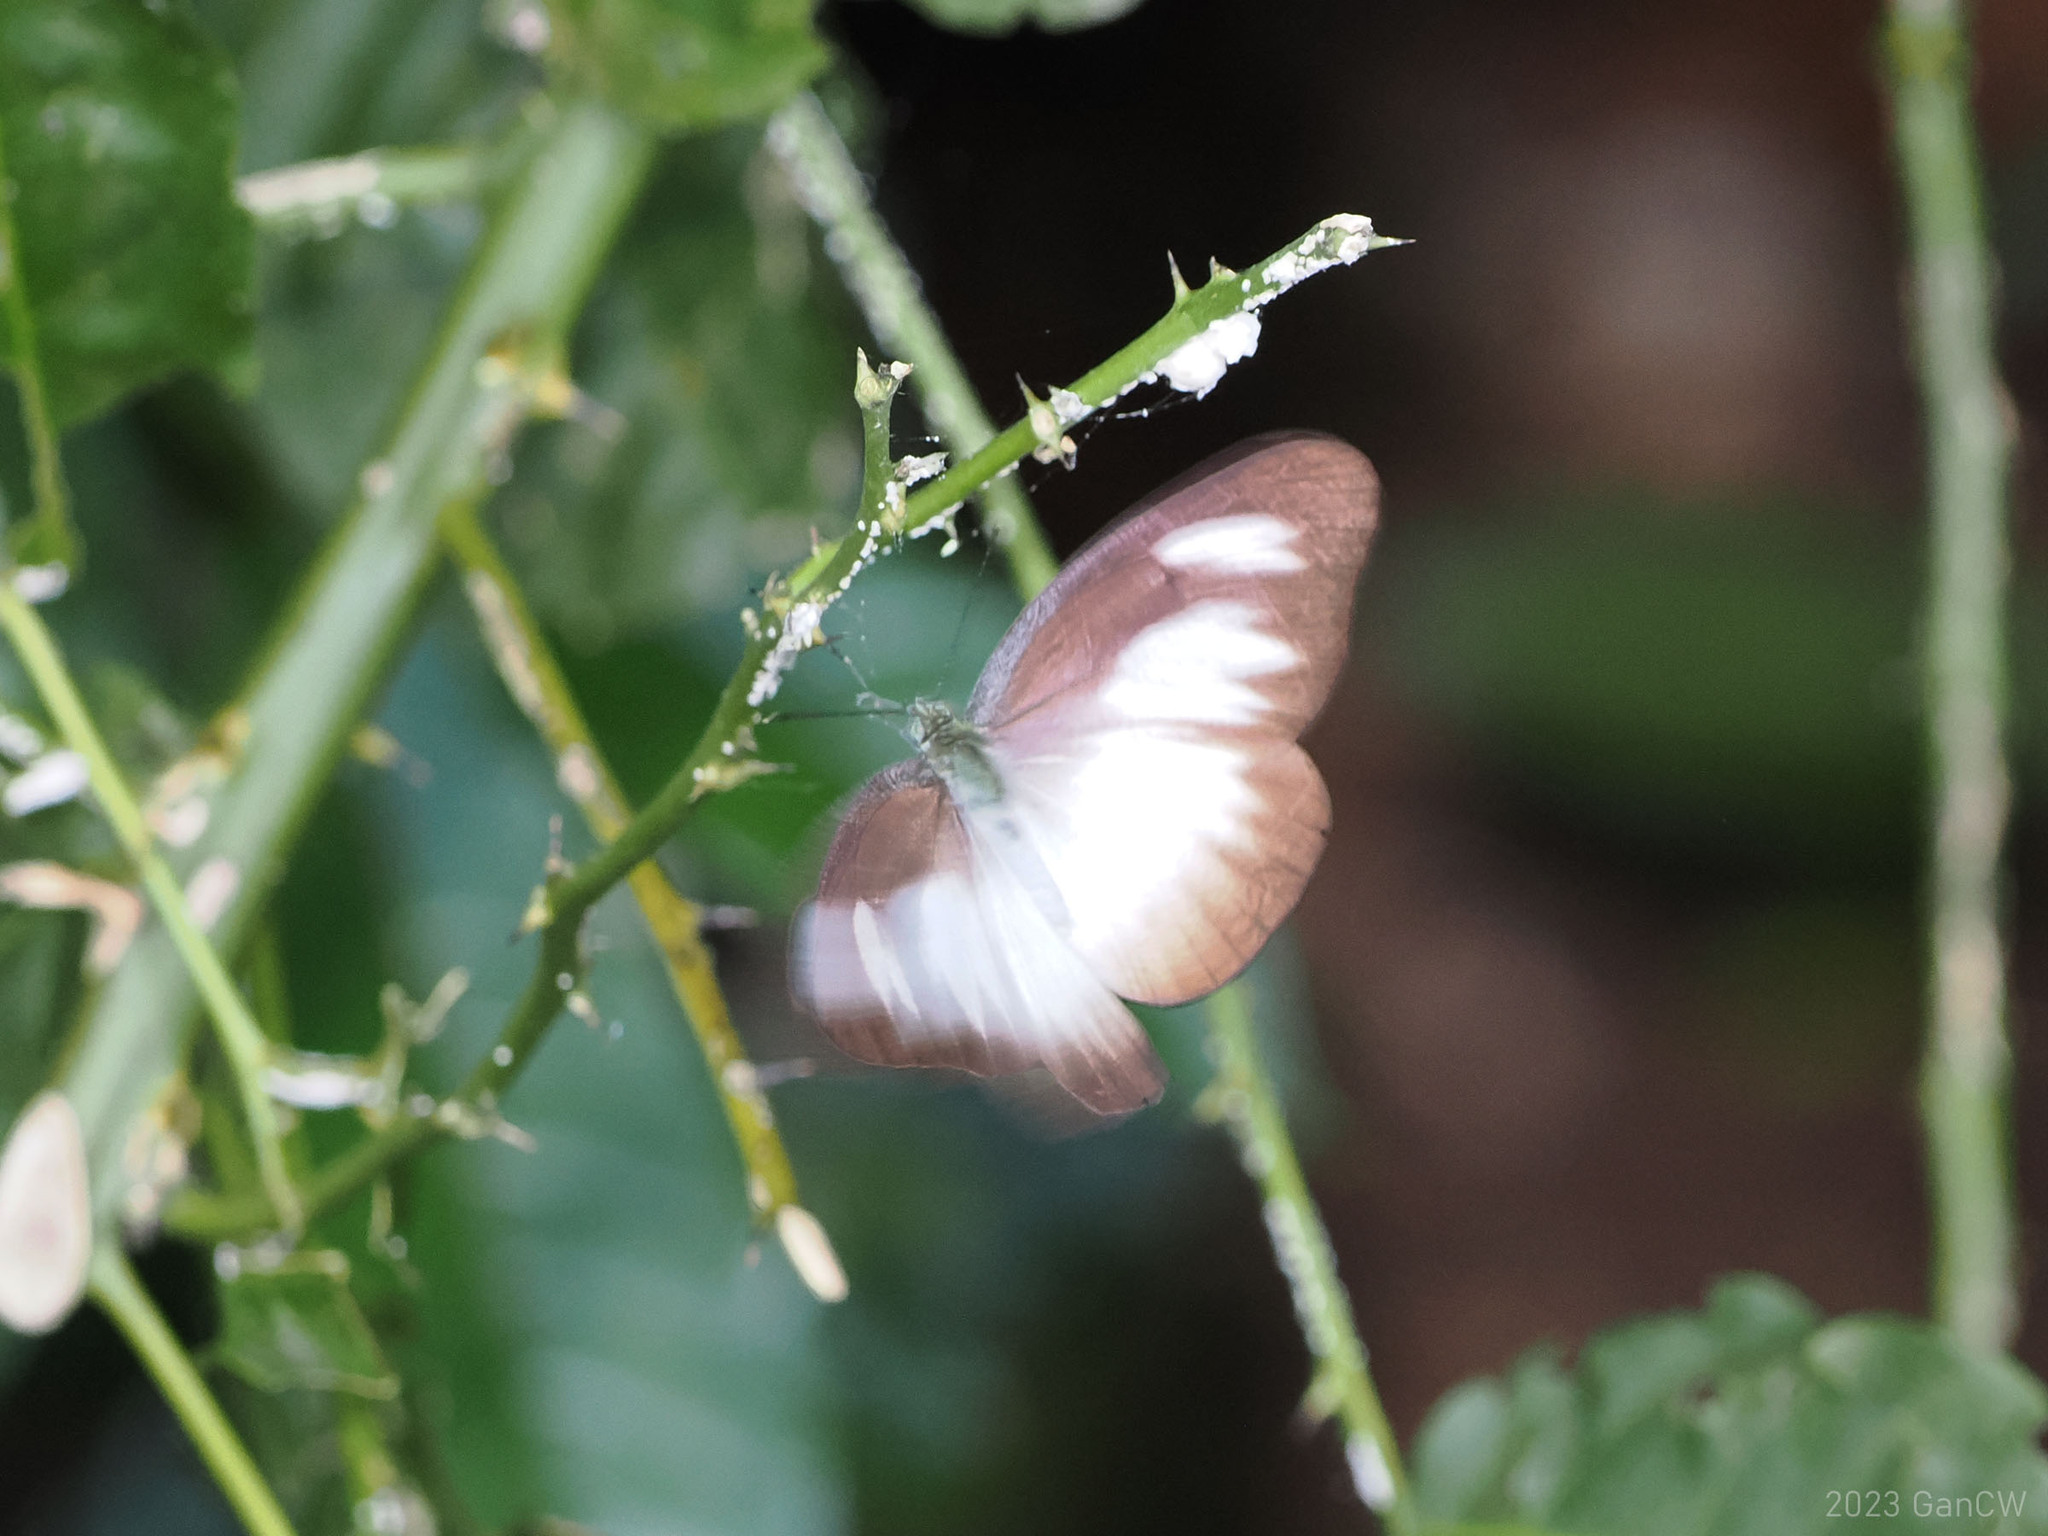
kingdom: Animalia
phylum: Arthropoda
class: Insecta
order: Lepidoptera
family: Pieridae
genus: Appias
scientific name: Appias lyncida
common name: Chocolate albatross
